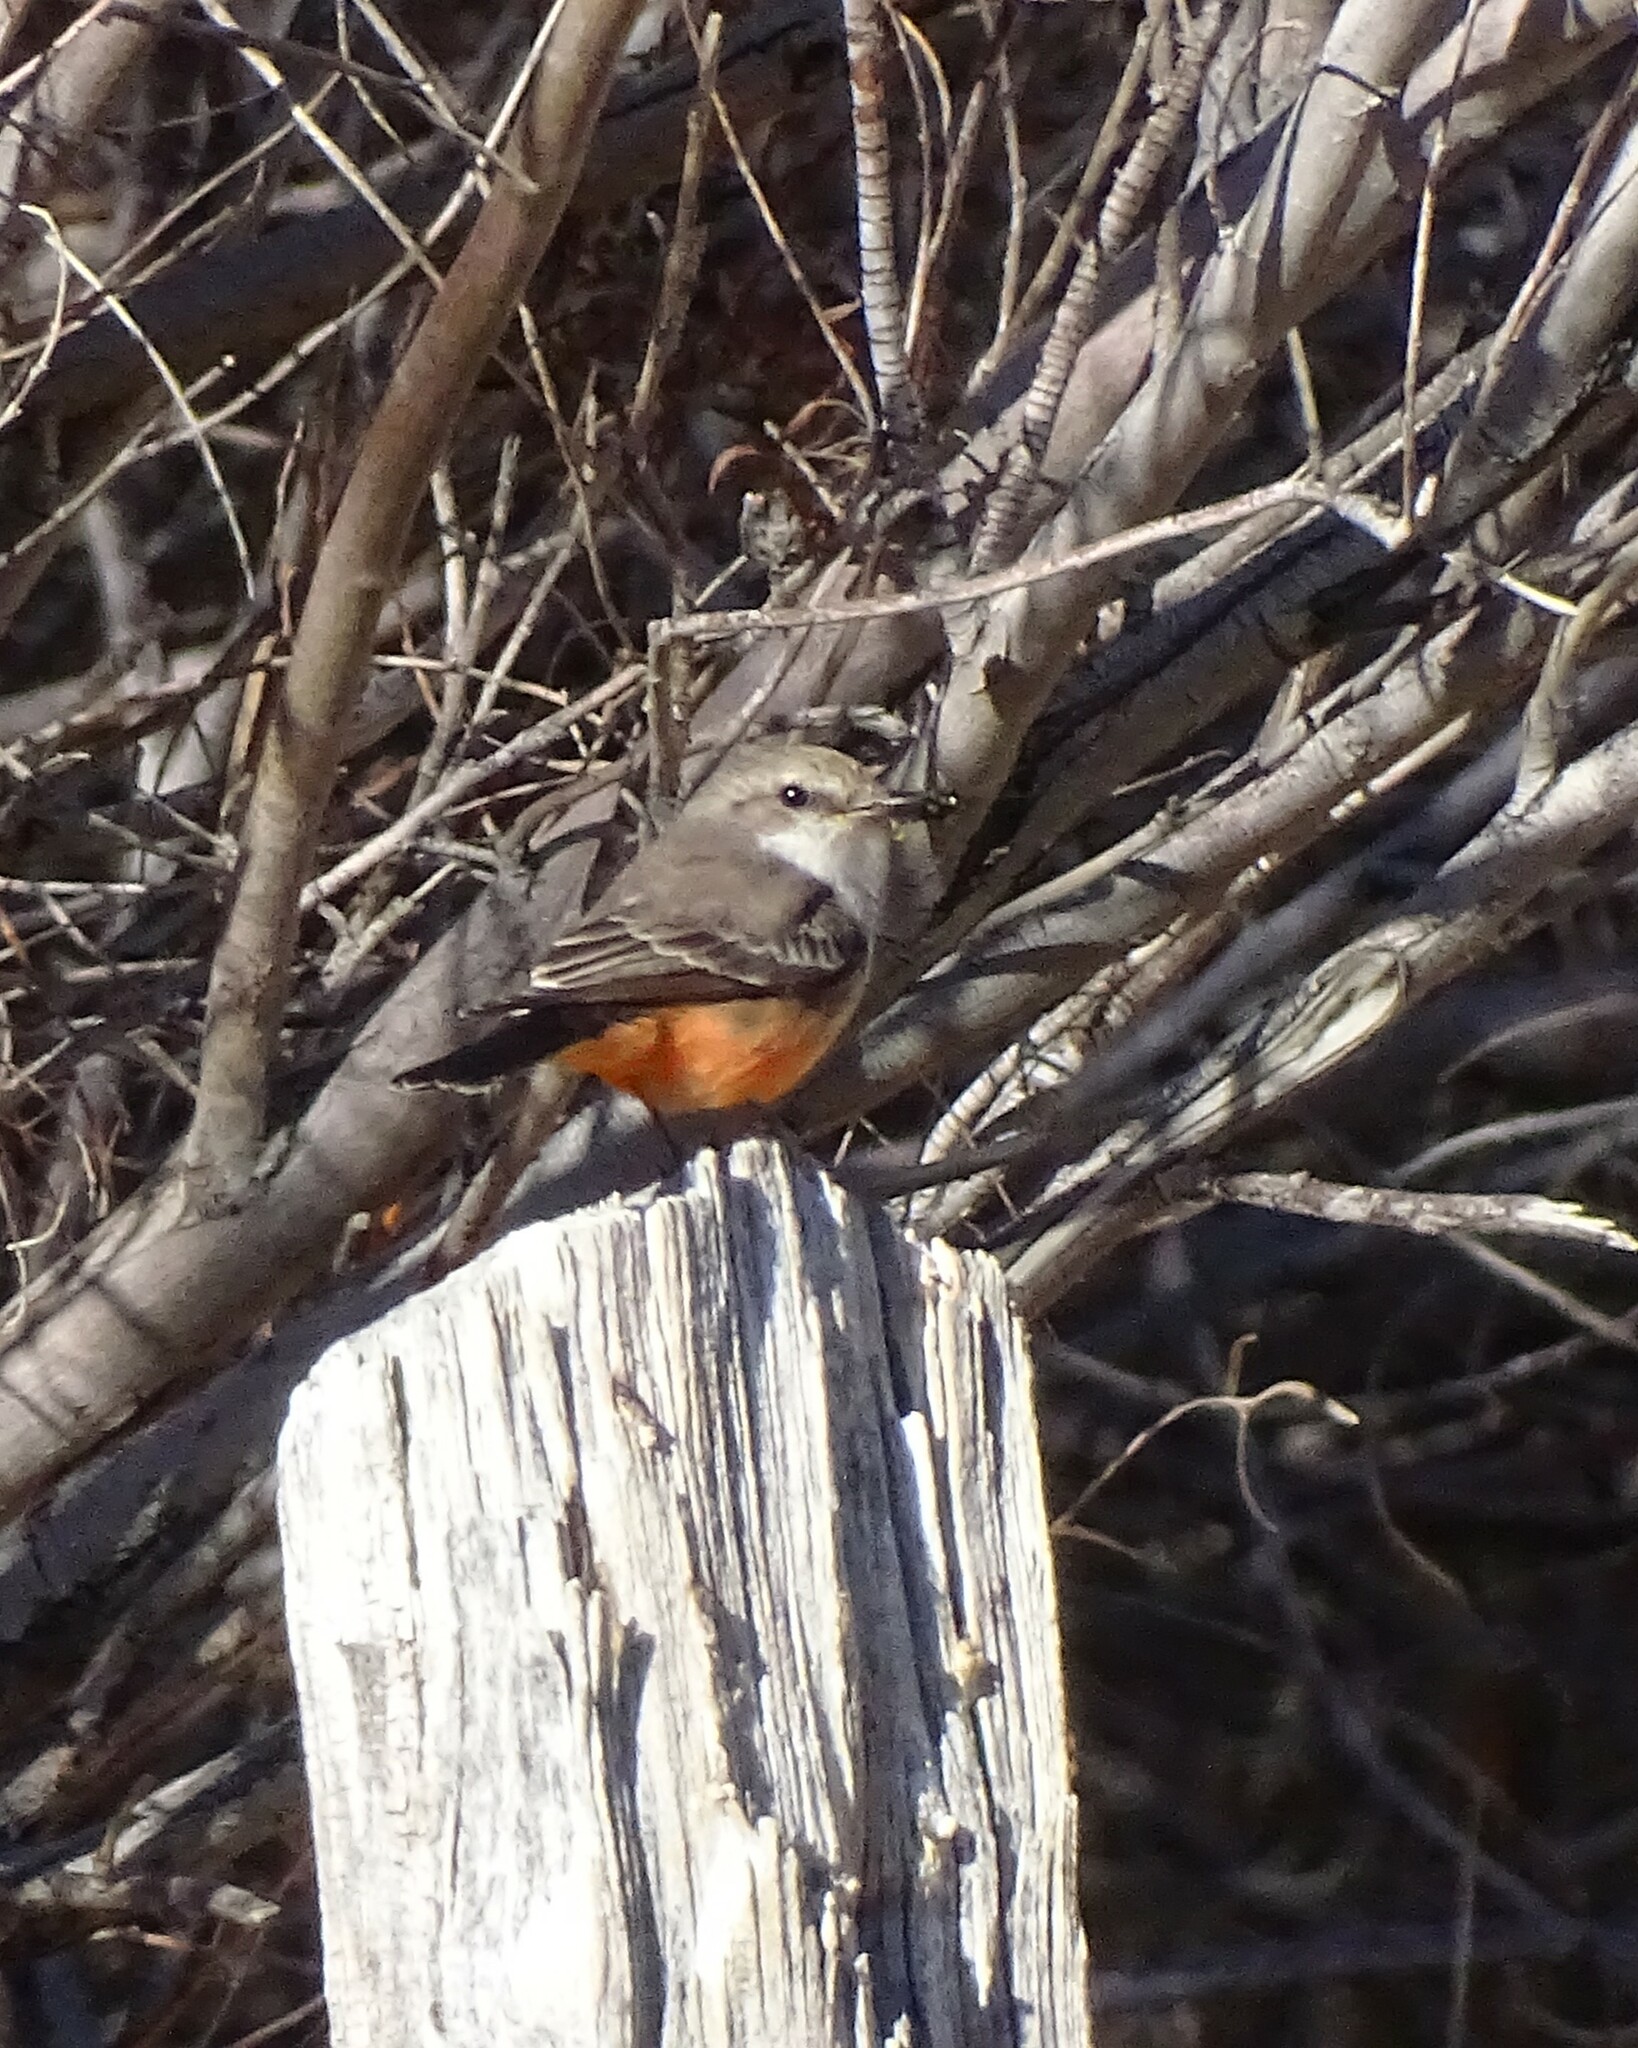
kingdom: Animalia
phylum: Chordata
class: Aves
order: Passeriformes
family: Tyrannidae
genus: Pyrocephalus
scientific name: Pyrocephalus rubinus
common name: Vermilion flycatcher
